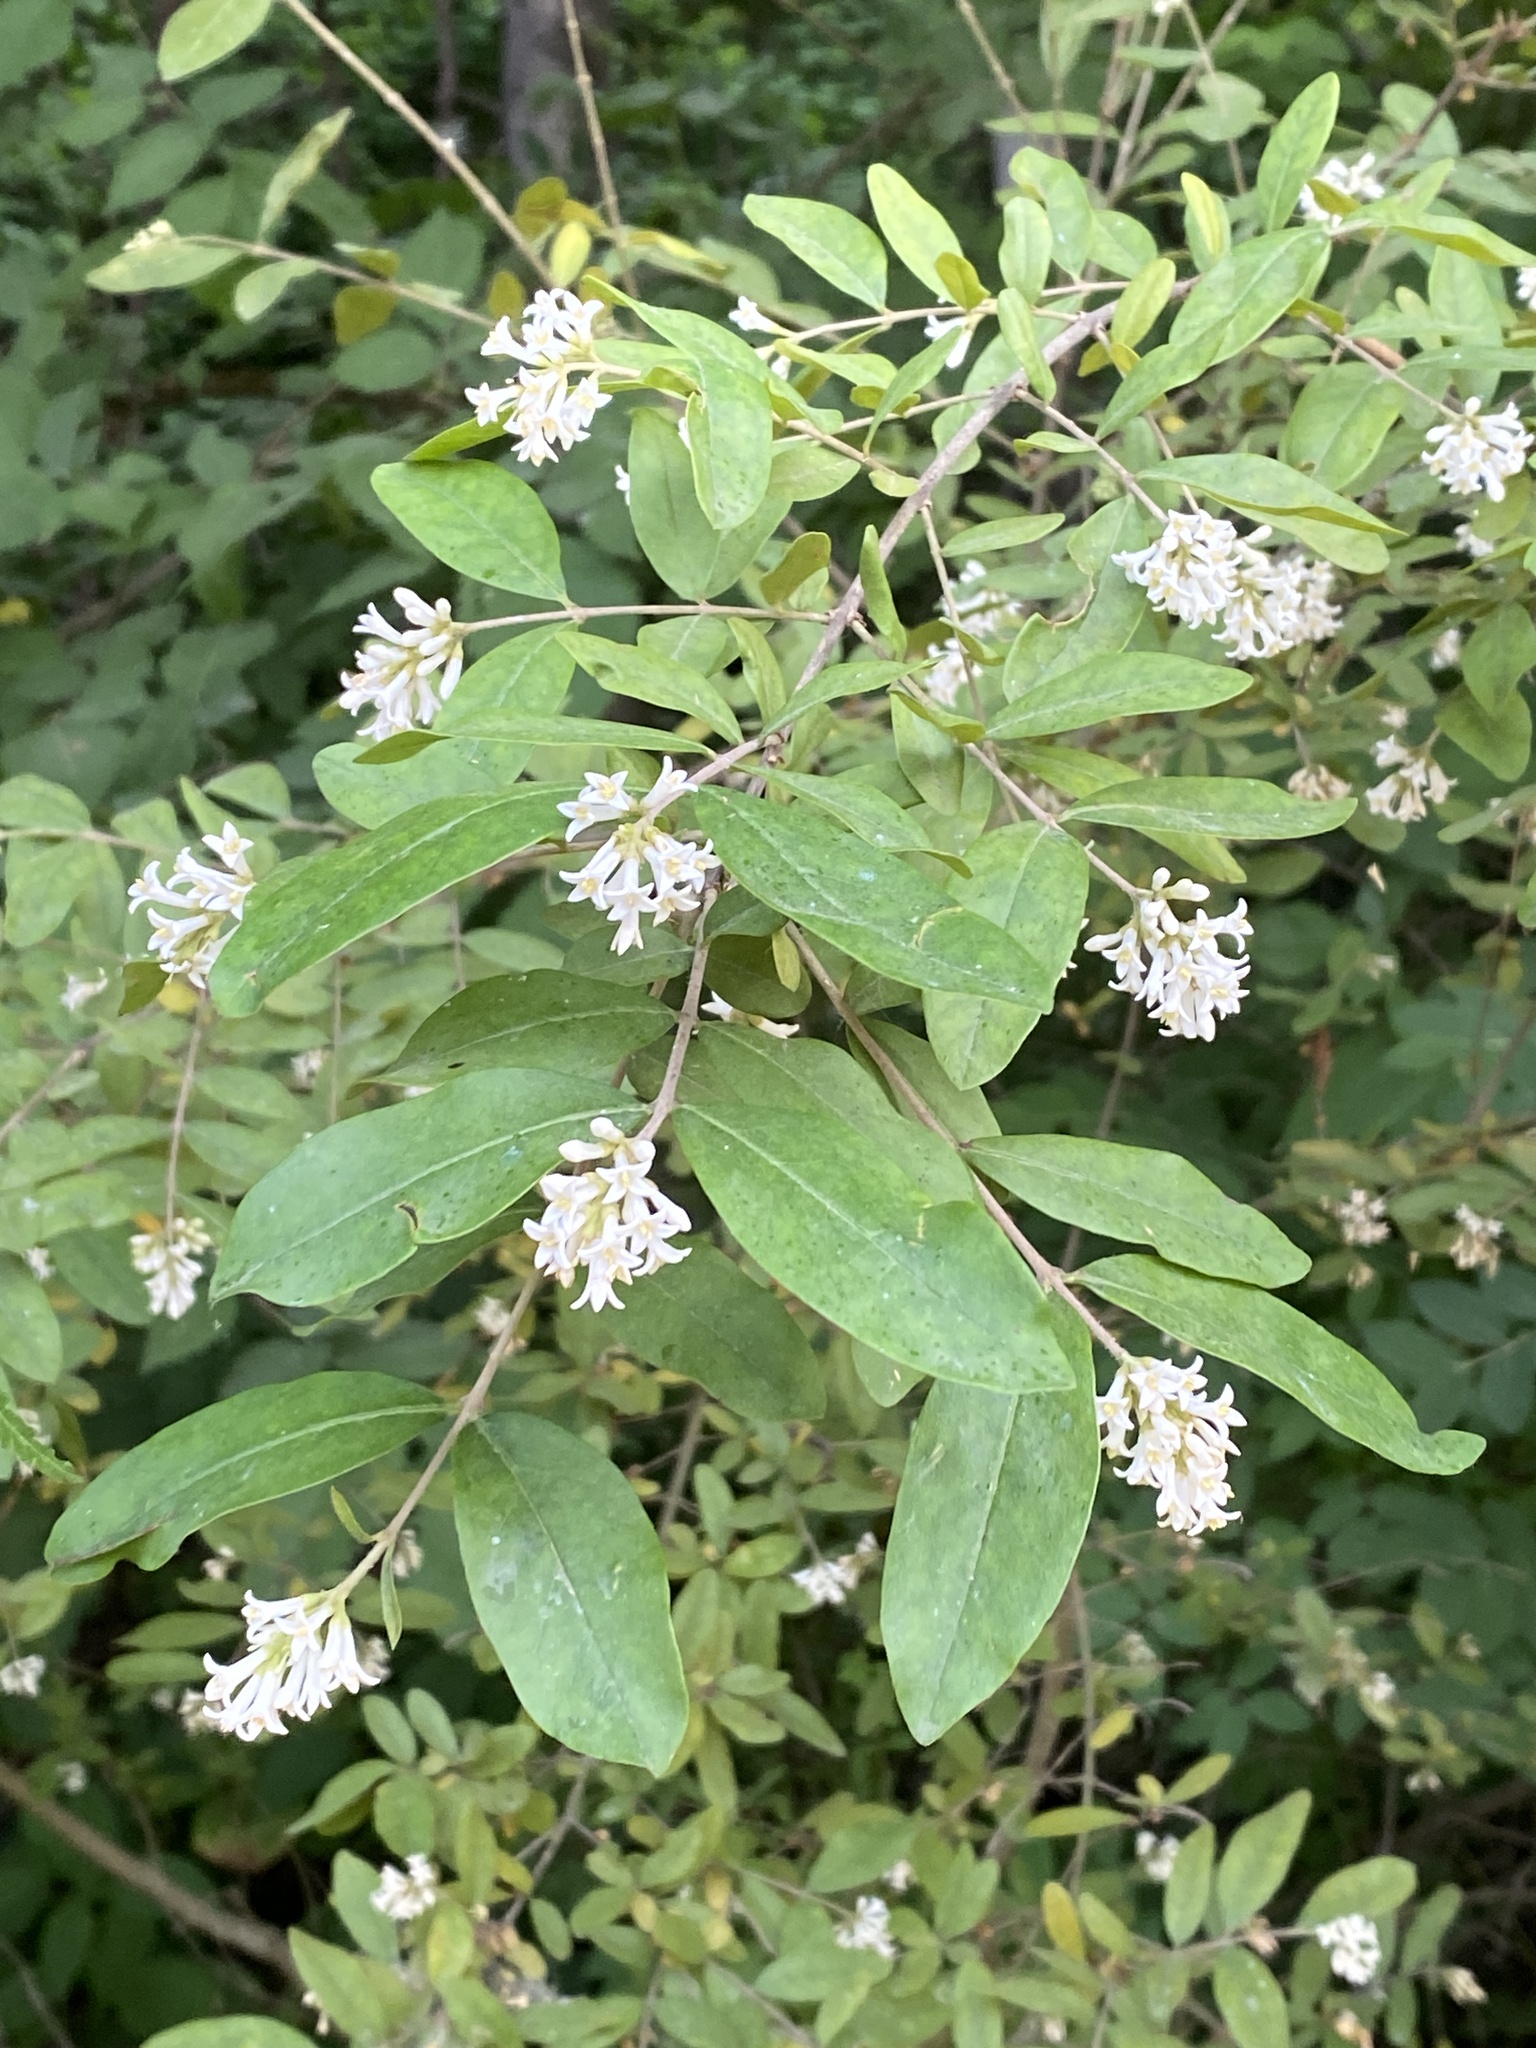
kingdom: Plantae
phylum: Tracheophyta
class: Magnoliopsida
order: Lamiales
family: Oleaceae
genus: Ligustrum
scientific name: Ligustrum obtusifolium
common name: Border privet
